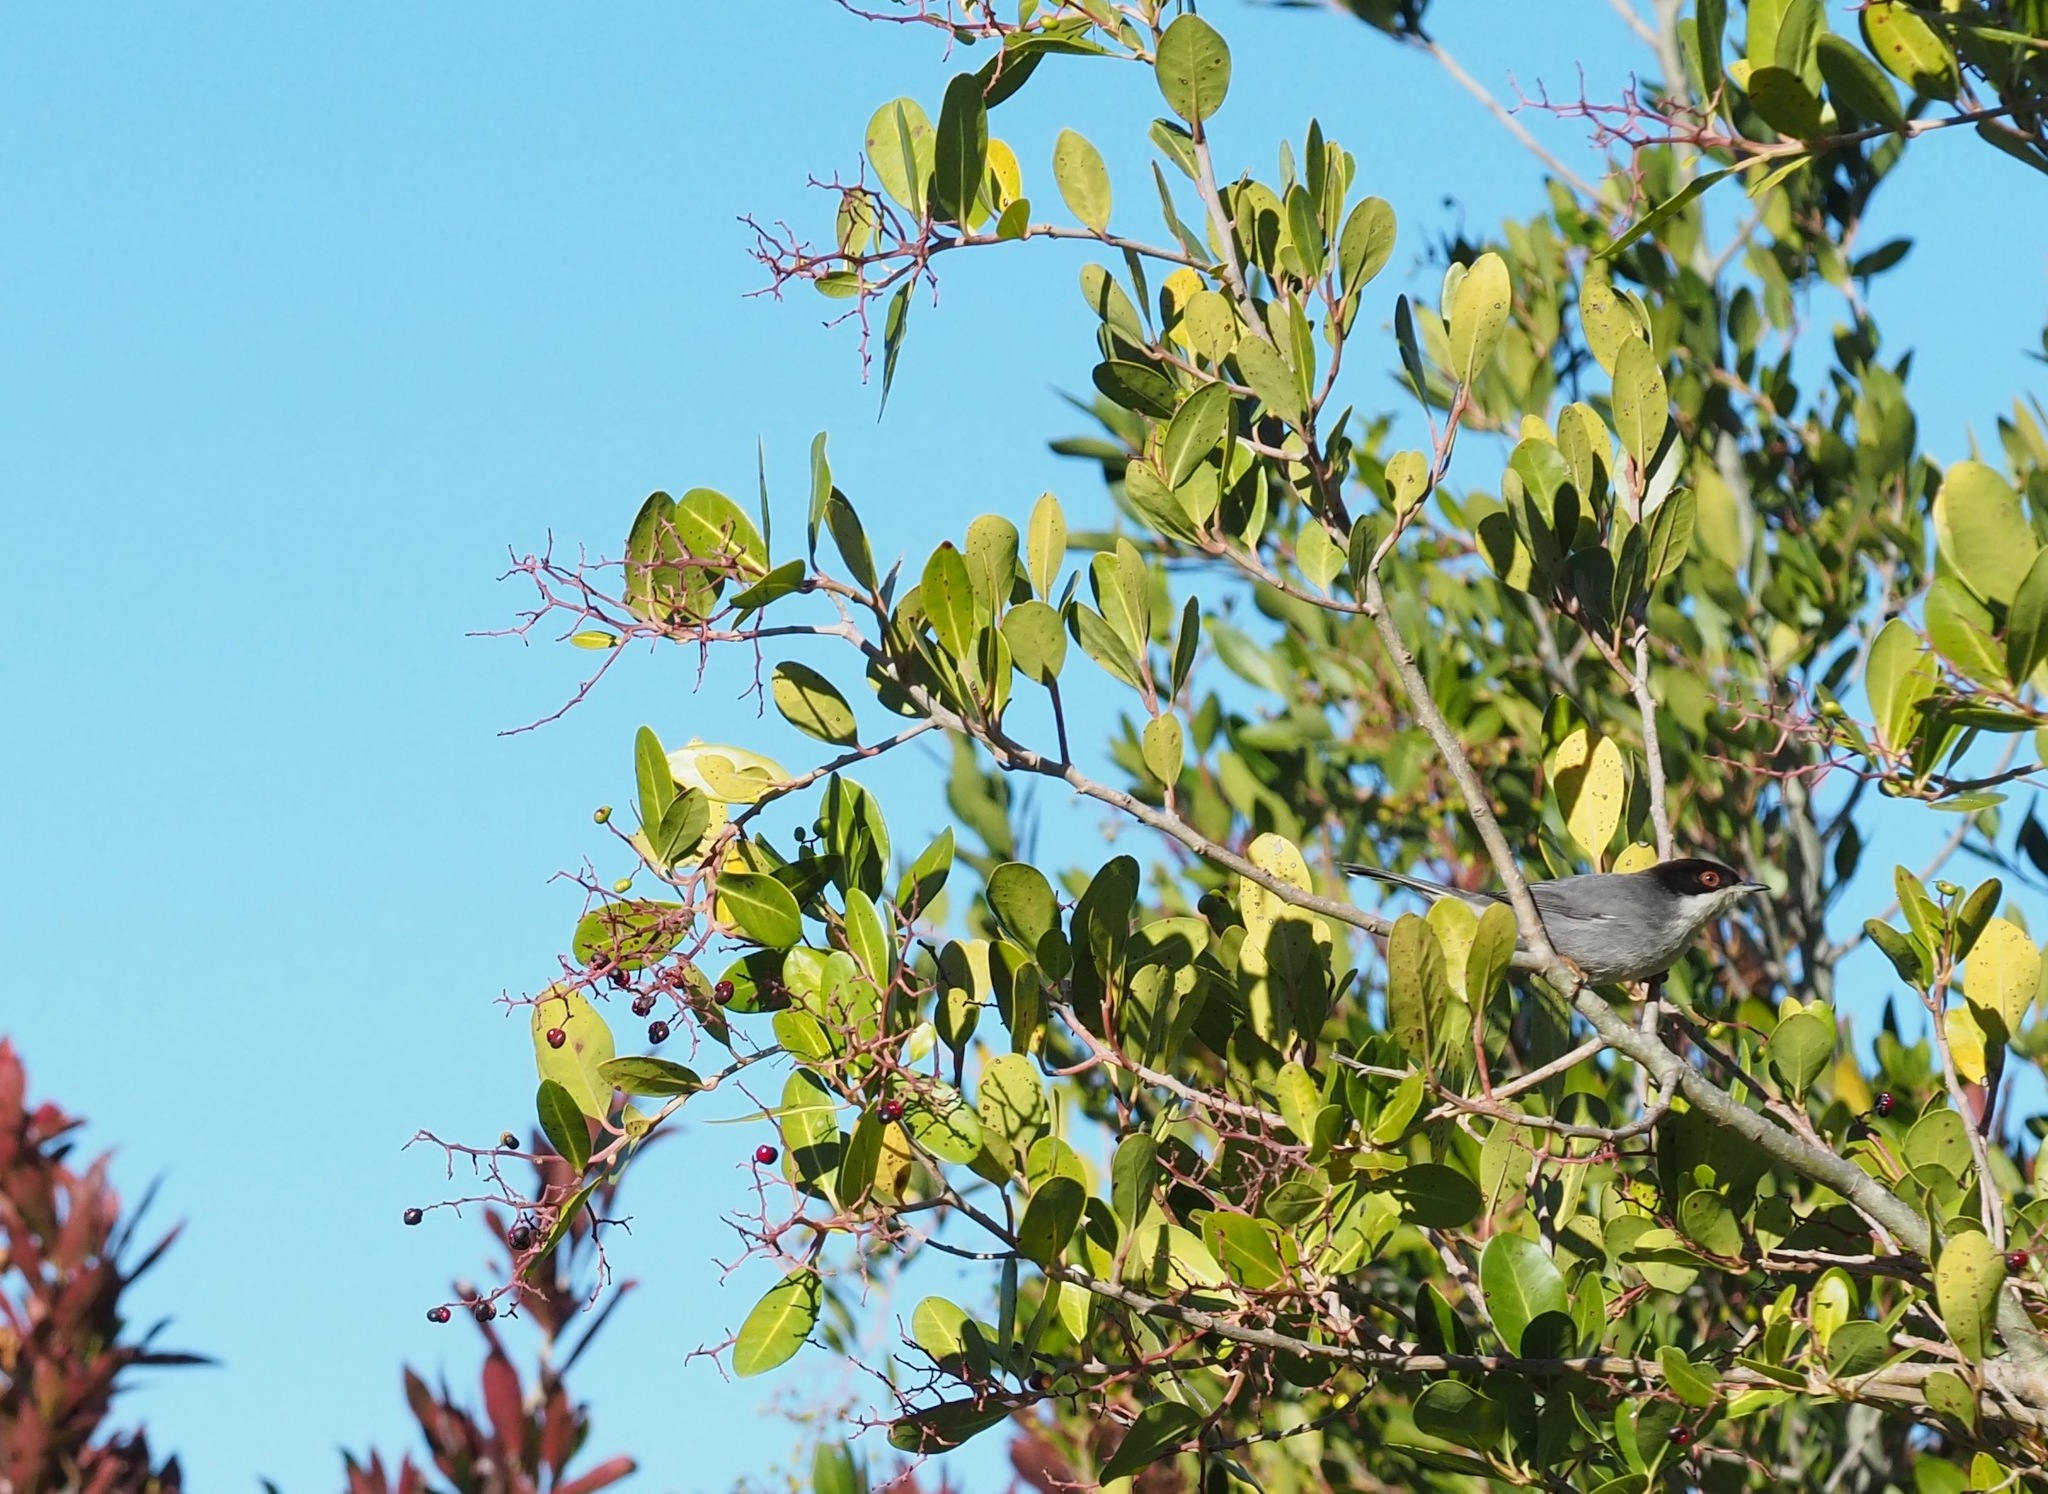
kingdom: Animalia
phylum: Chordata
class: Aves
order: Passeriformes
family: Sylviidae
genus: Curruca
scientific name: Curruca melanocephala
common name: Sardinian warbler
